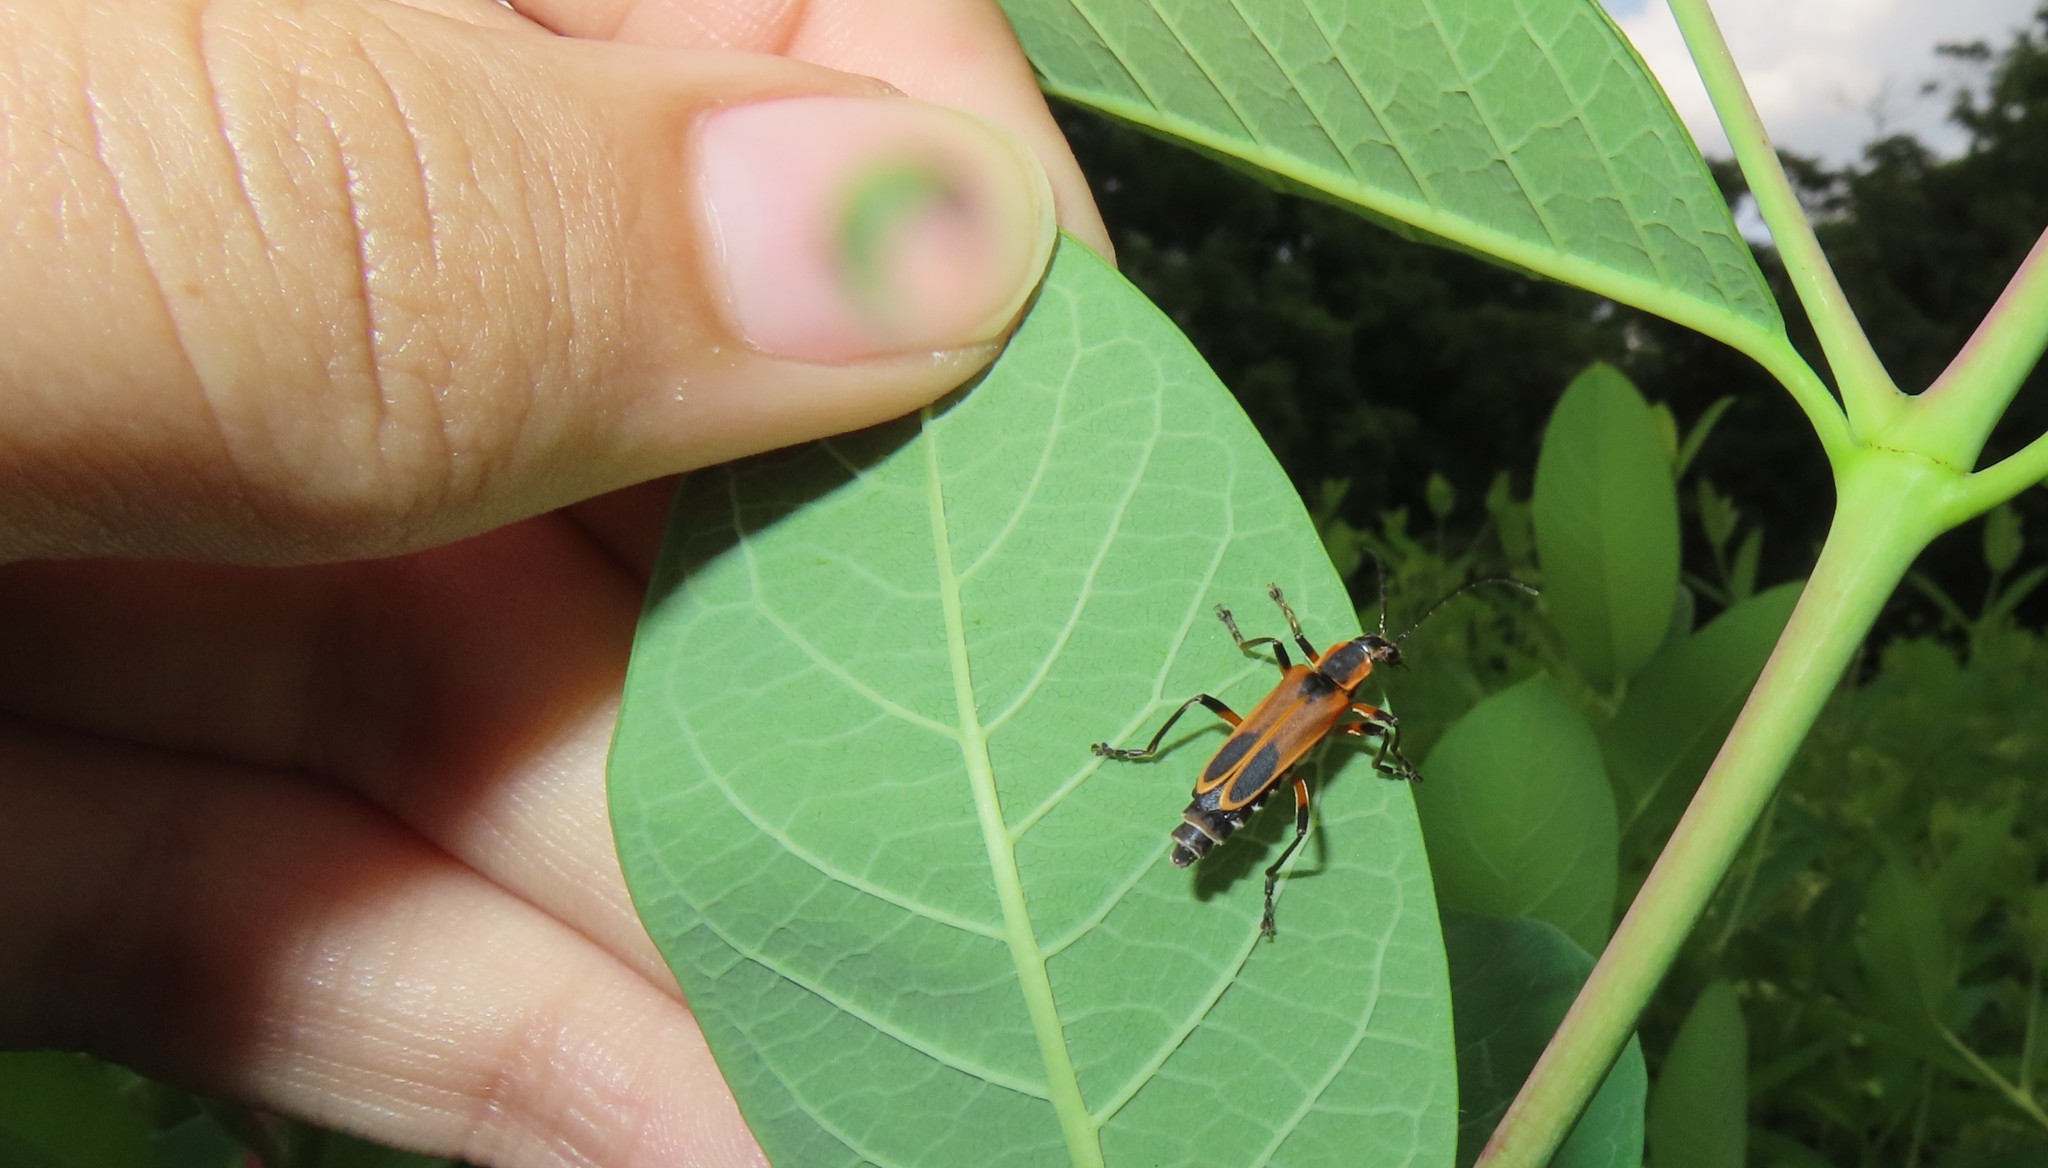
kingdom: Animalia
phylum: Arthropoda
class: Insecta
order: Coleoptera
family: Cantharidae
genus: Chauliognathus
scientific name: Chauliognathus marginatus
